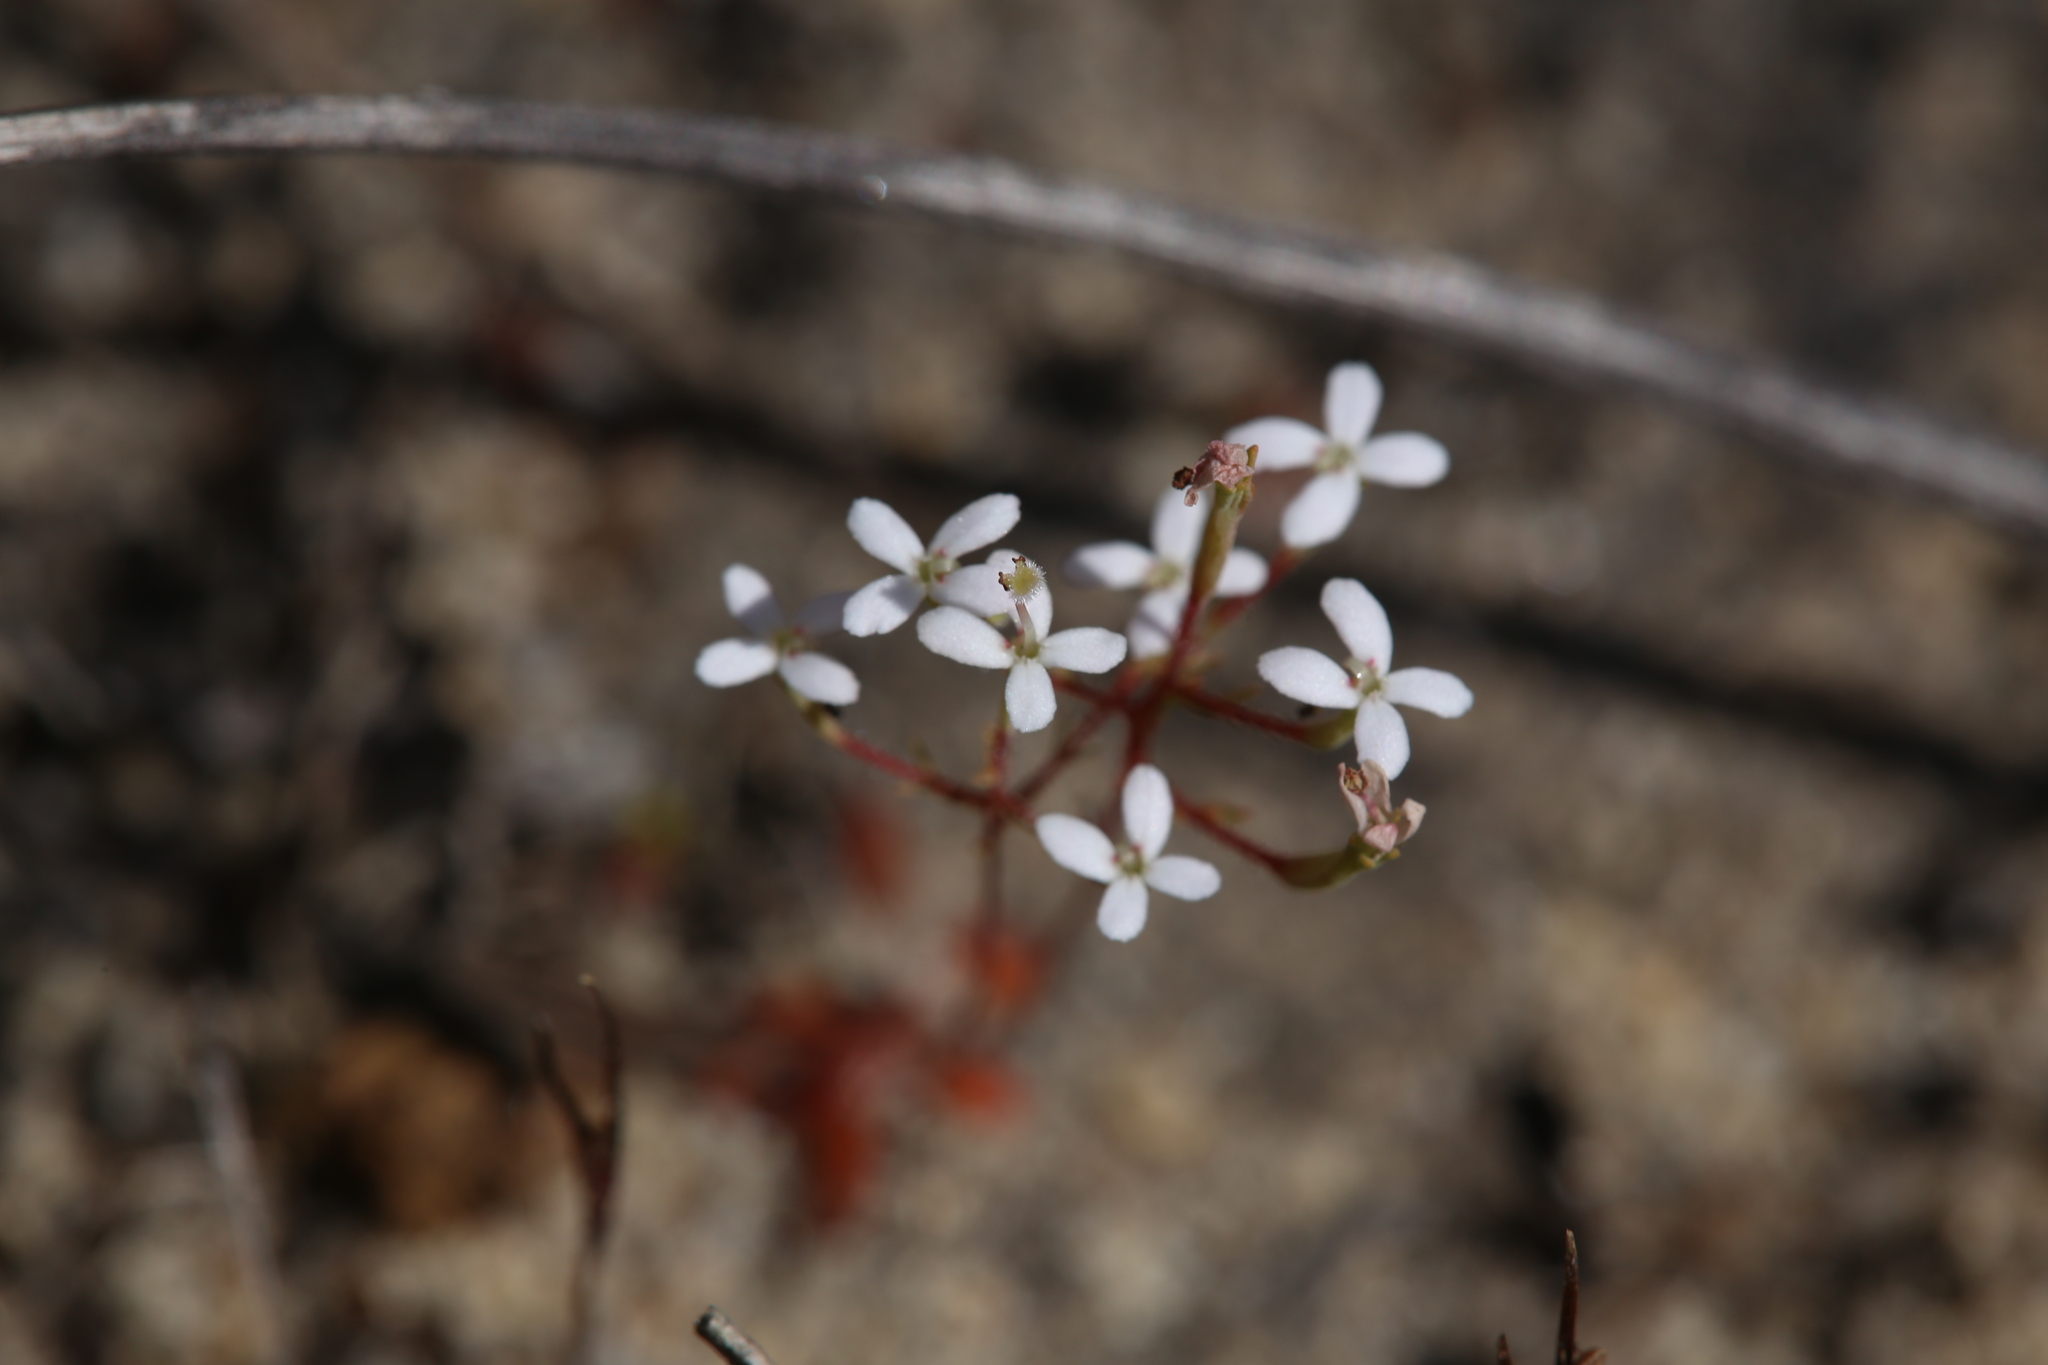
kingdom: Plantae
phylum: Tracheophyta
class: Magnoliopsida
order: Asterales
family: Stylidiaceae
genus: Stylidium
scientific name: Stylidium pulchellum
